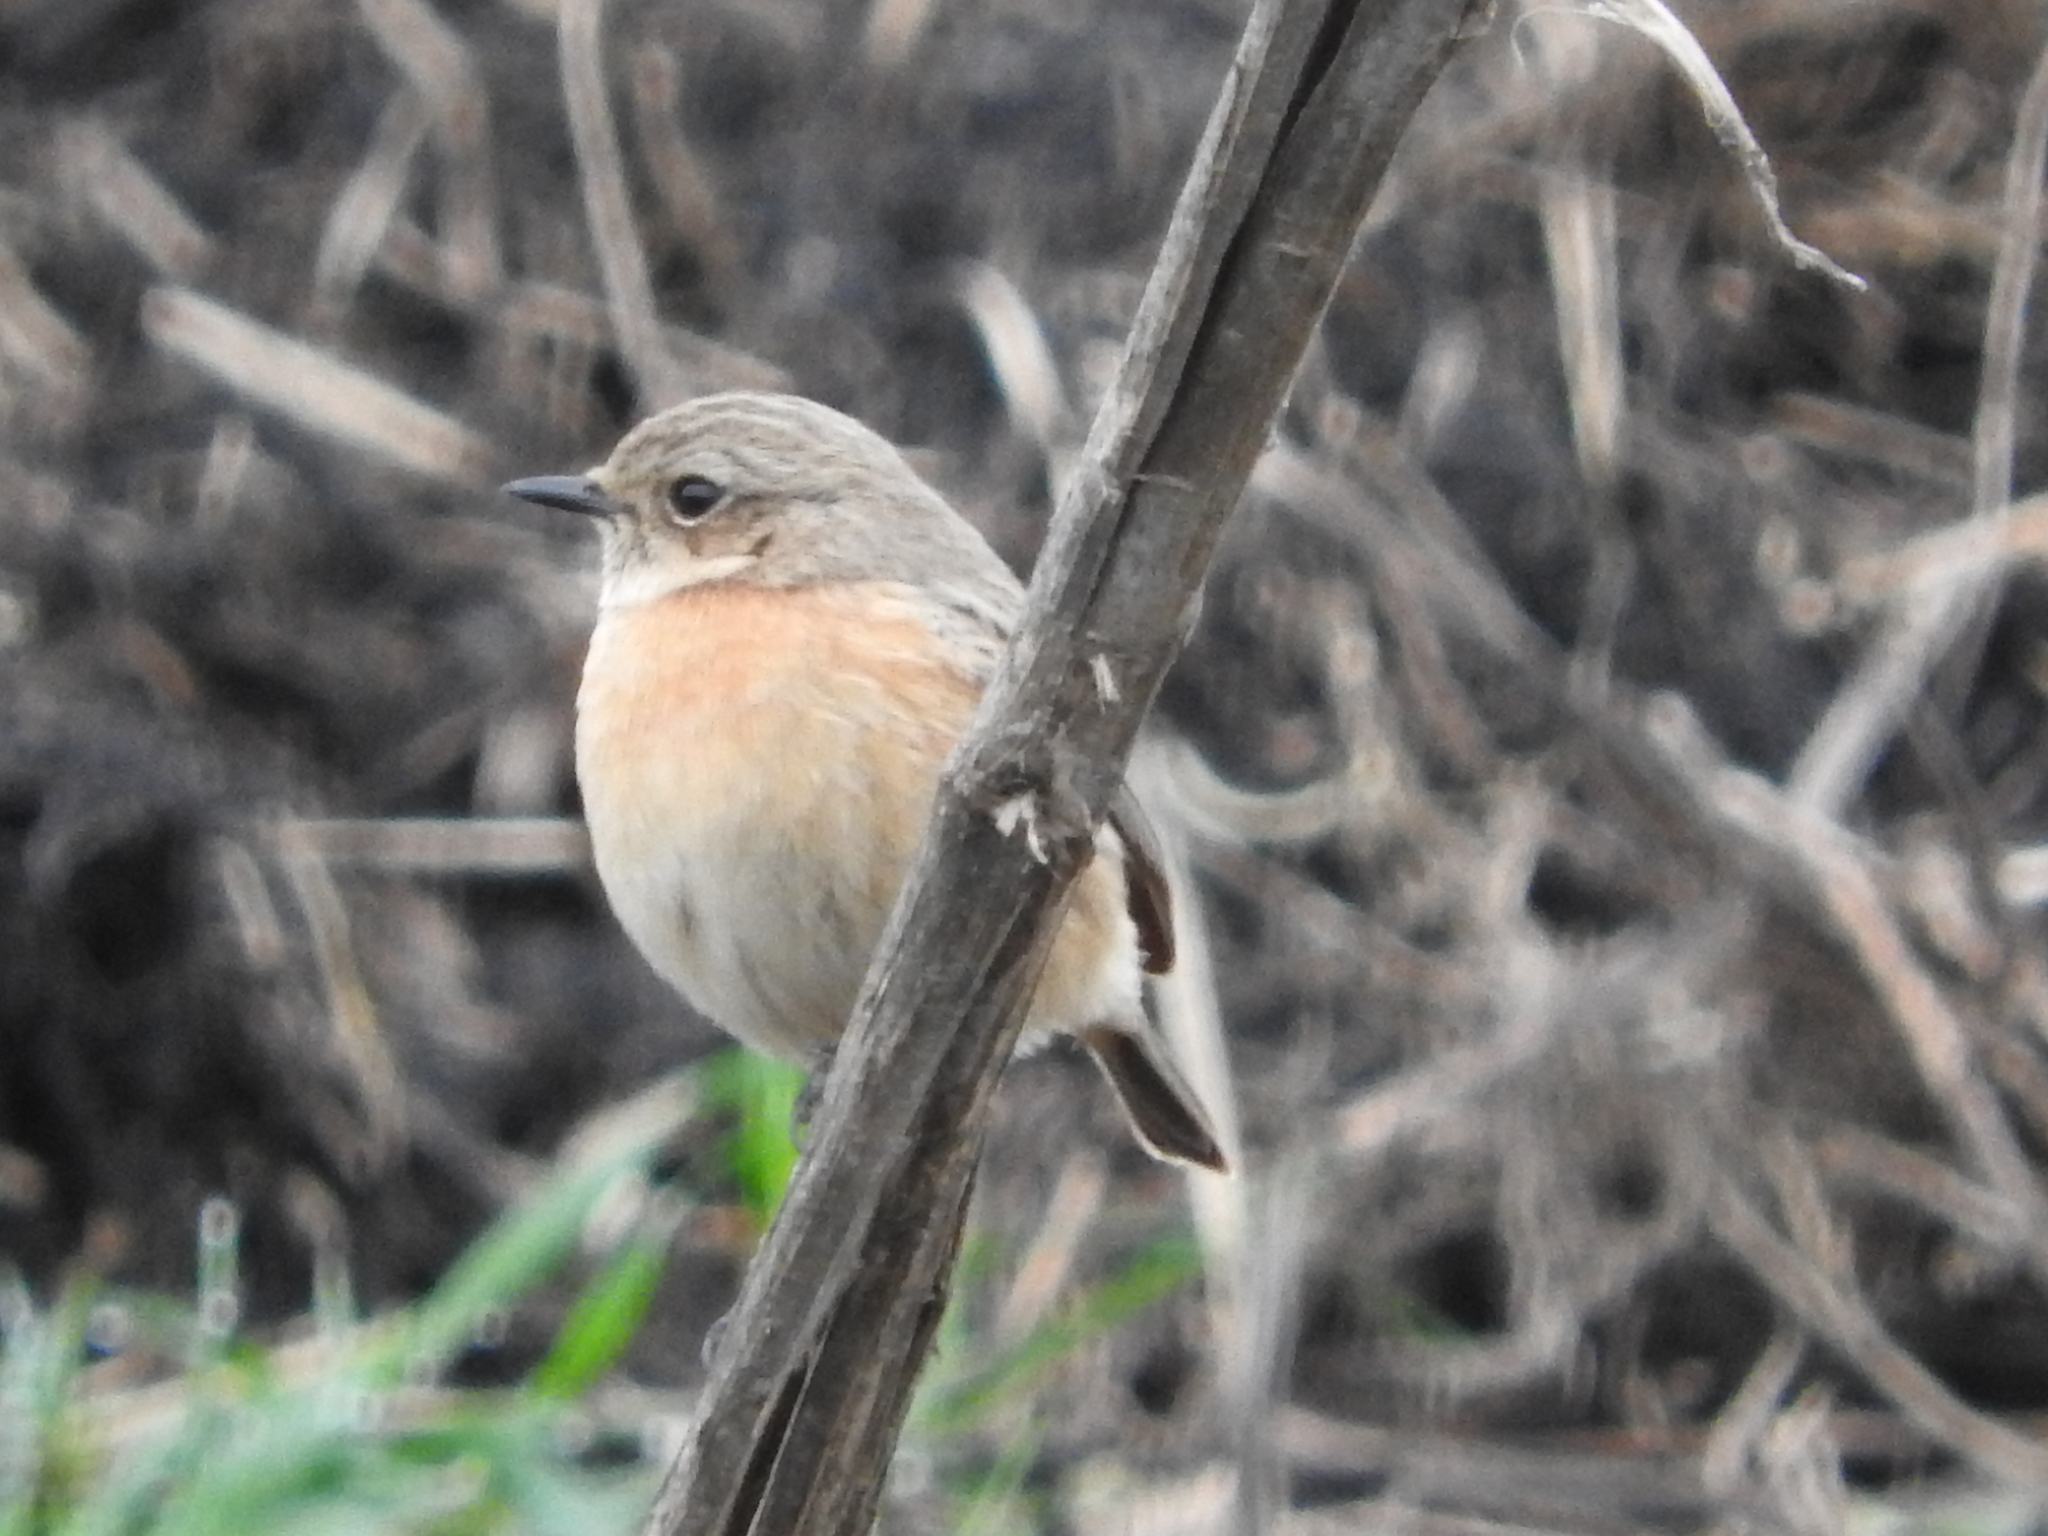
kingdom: Animalia
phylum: Chordata
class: Aves
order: Passeriformes
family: Muscicapidae
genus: Saxicola
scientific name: Saxicola rubicola
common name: European stonechat
